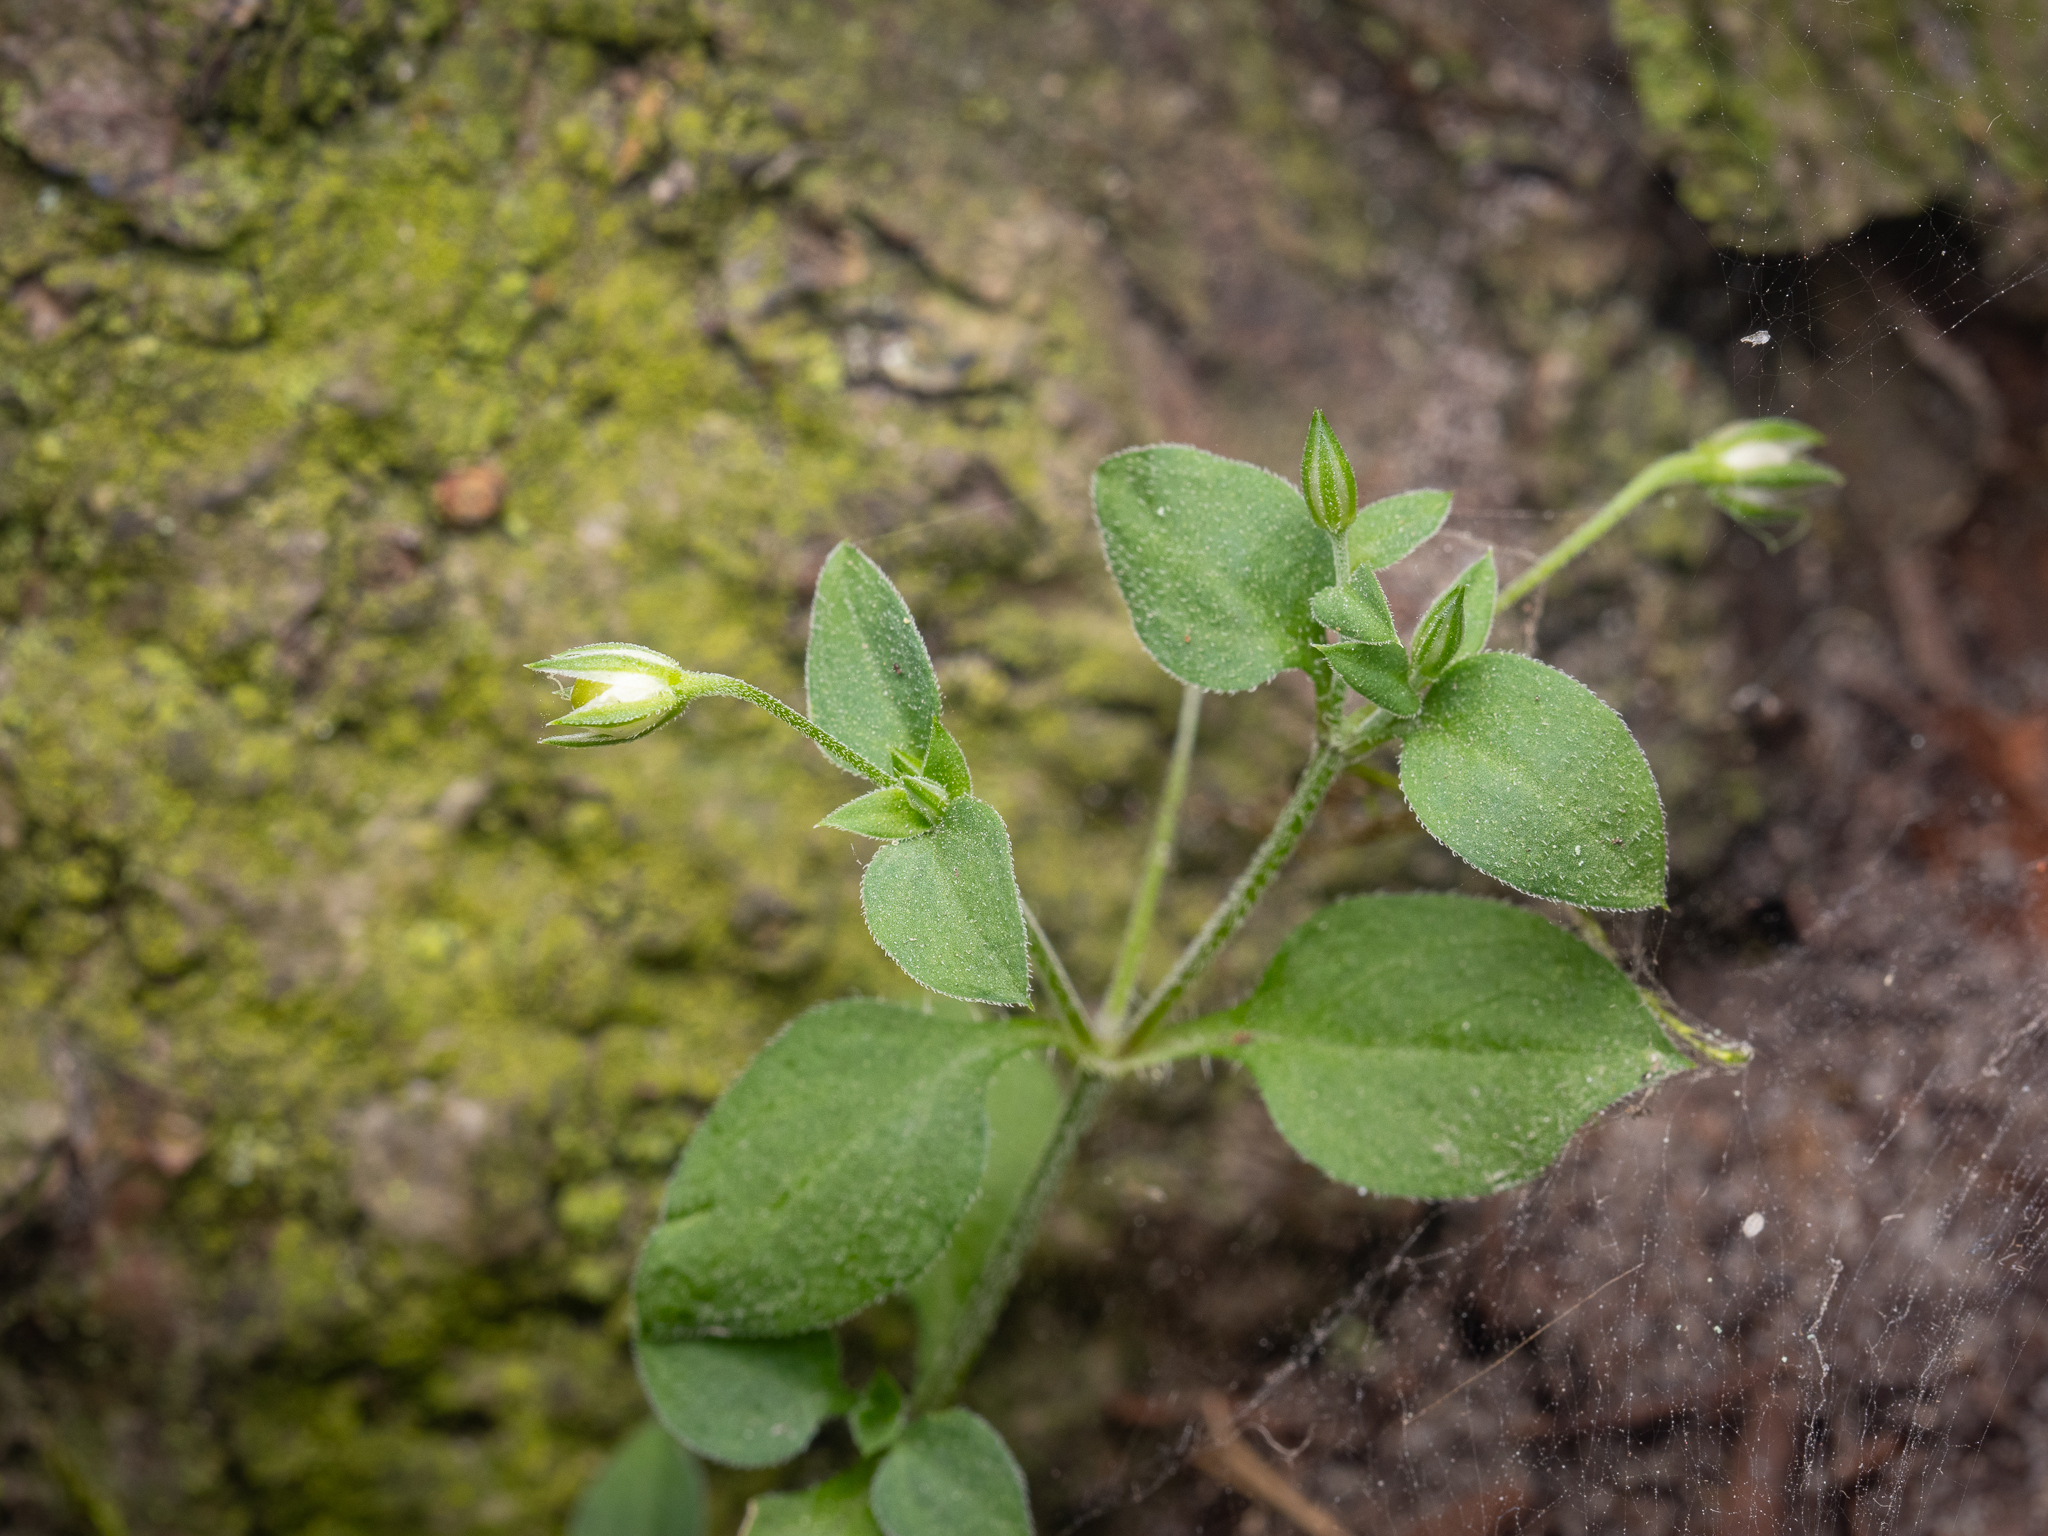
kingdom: Plantae
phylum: Tracheophyta
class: Magnoliopsida
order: Caryophyllales
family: Caryophyllaceae
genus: Moehringia
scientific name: Moehringia trinervia
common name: Three-nerved sandwort
